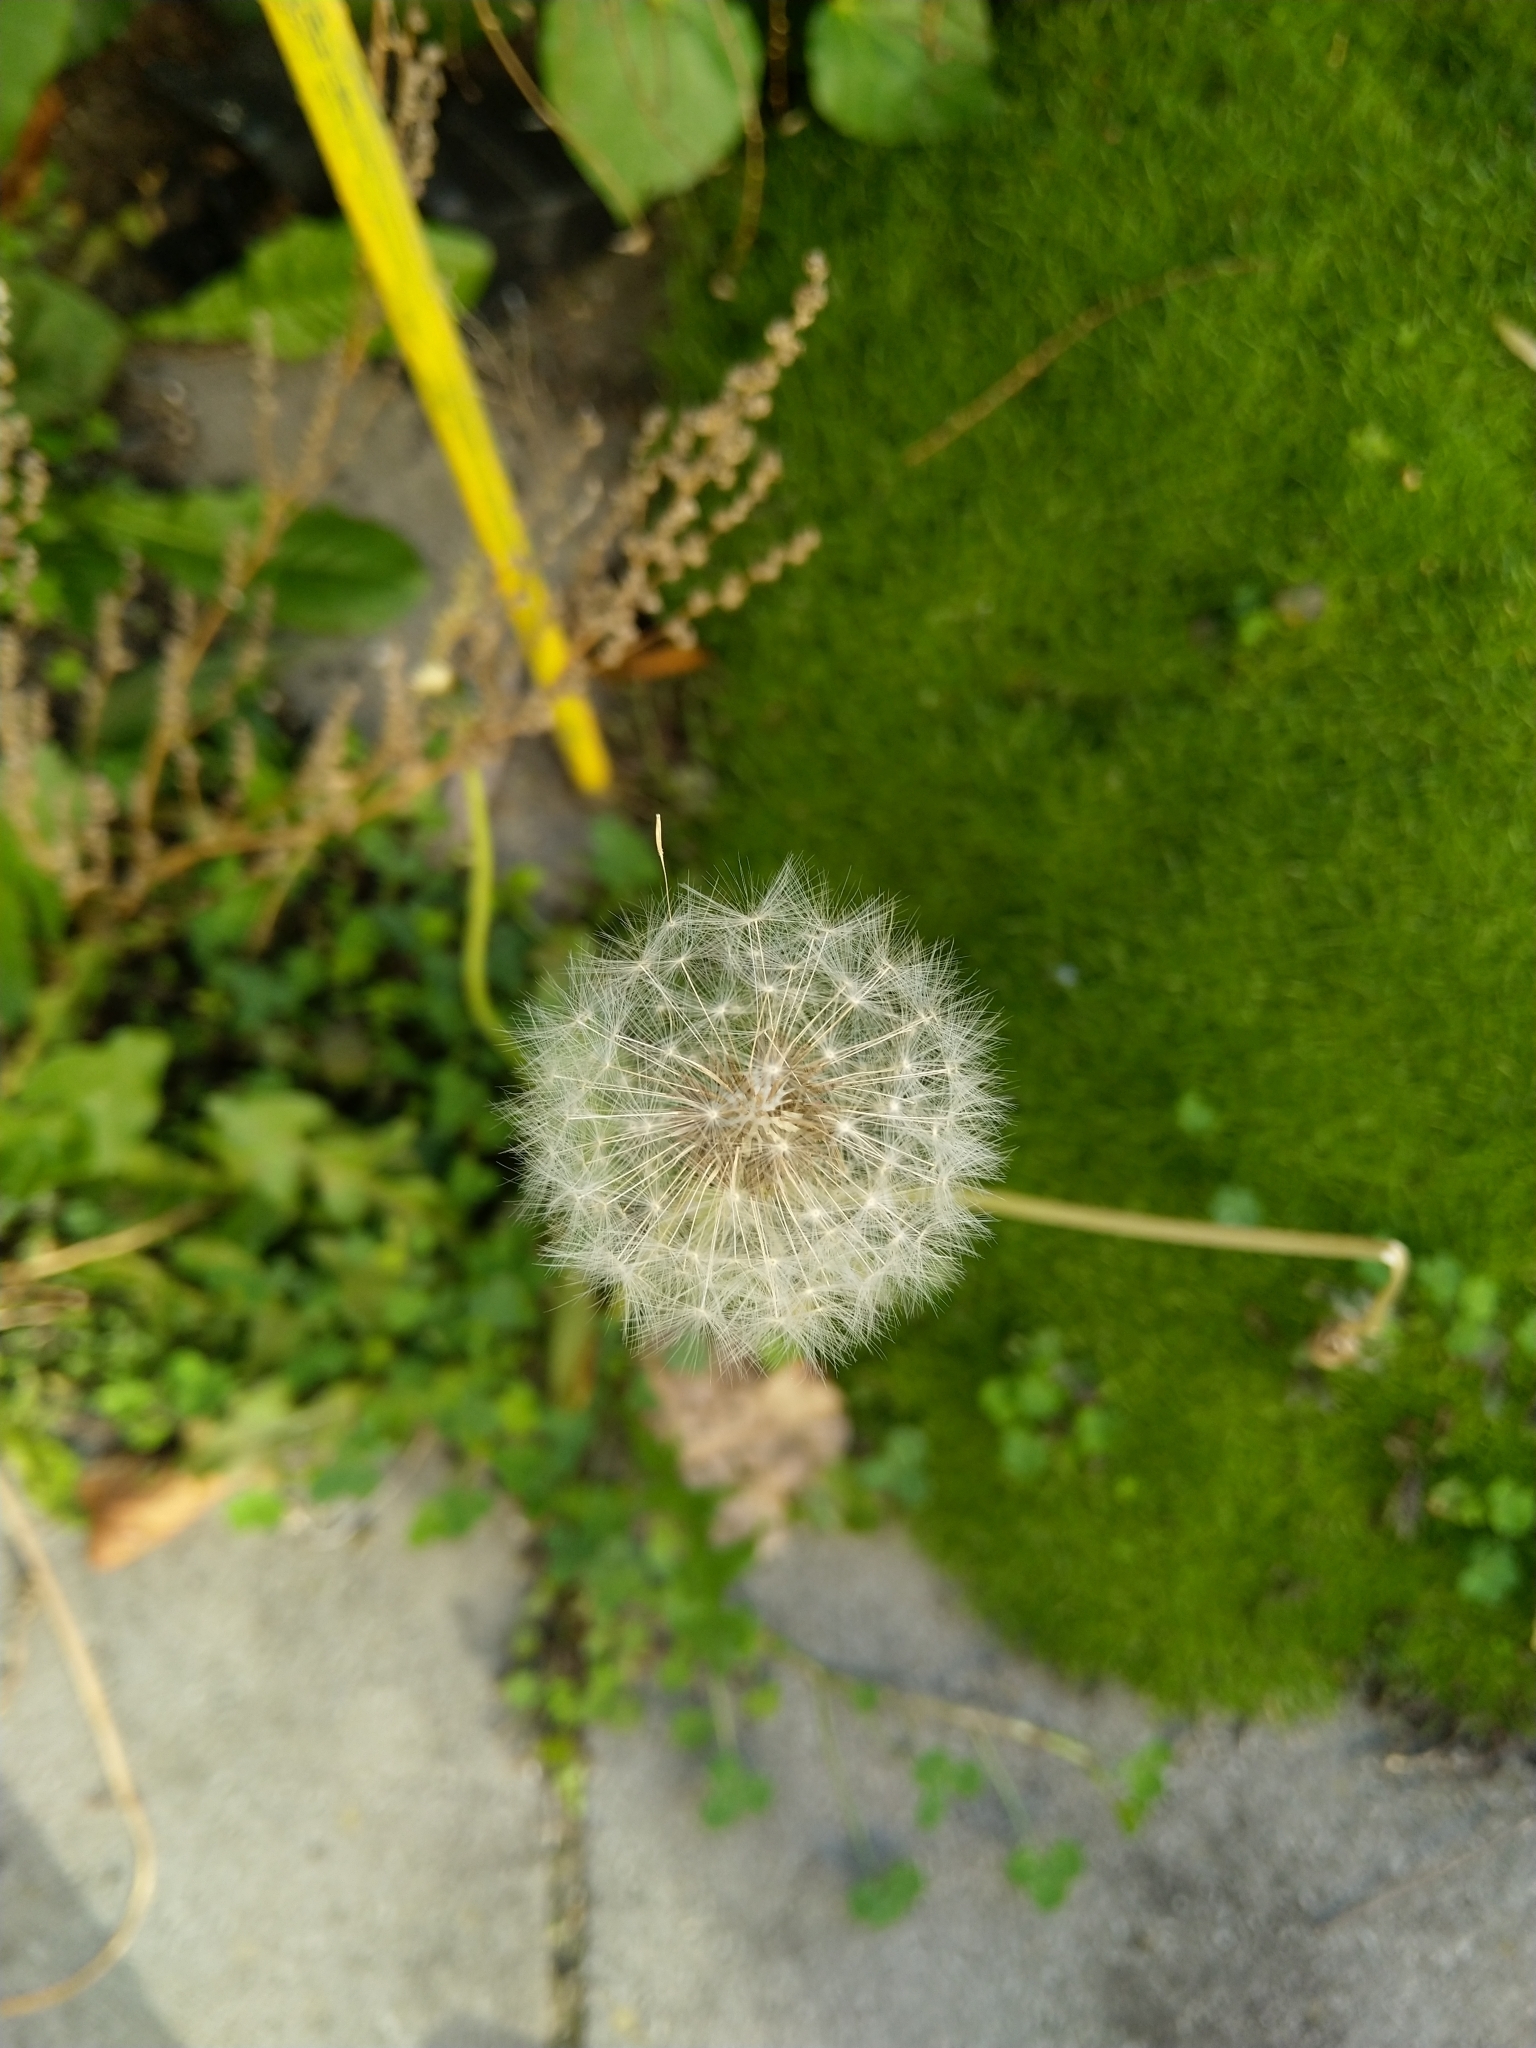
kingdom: Plantae
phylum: Tracheophyta
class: Magnoliopsida
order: Asterales
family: Asteraceae
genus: Taraxacum
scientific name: Taraxacum officinale
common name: Common dandelion
